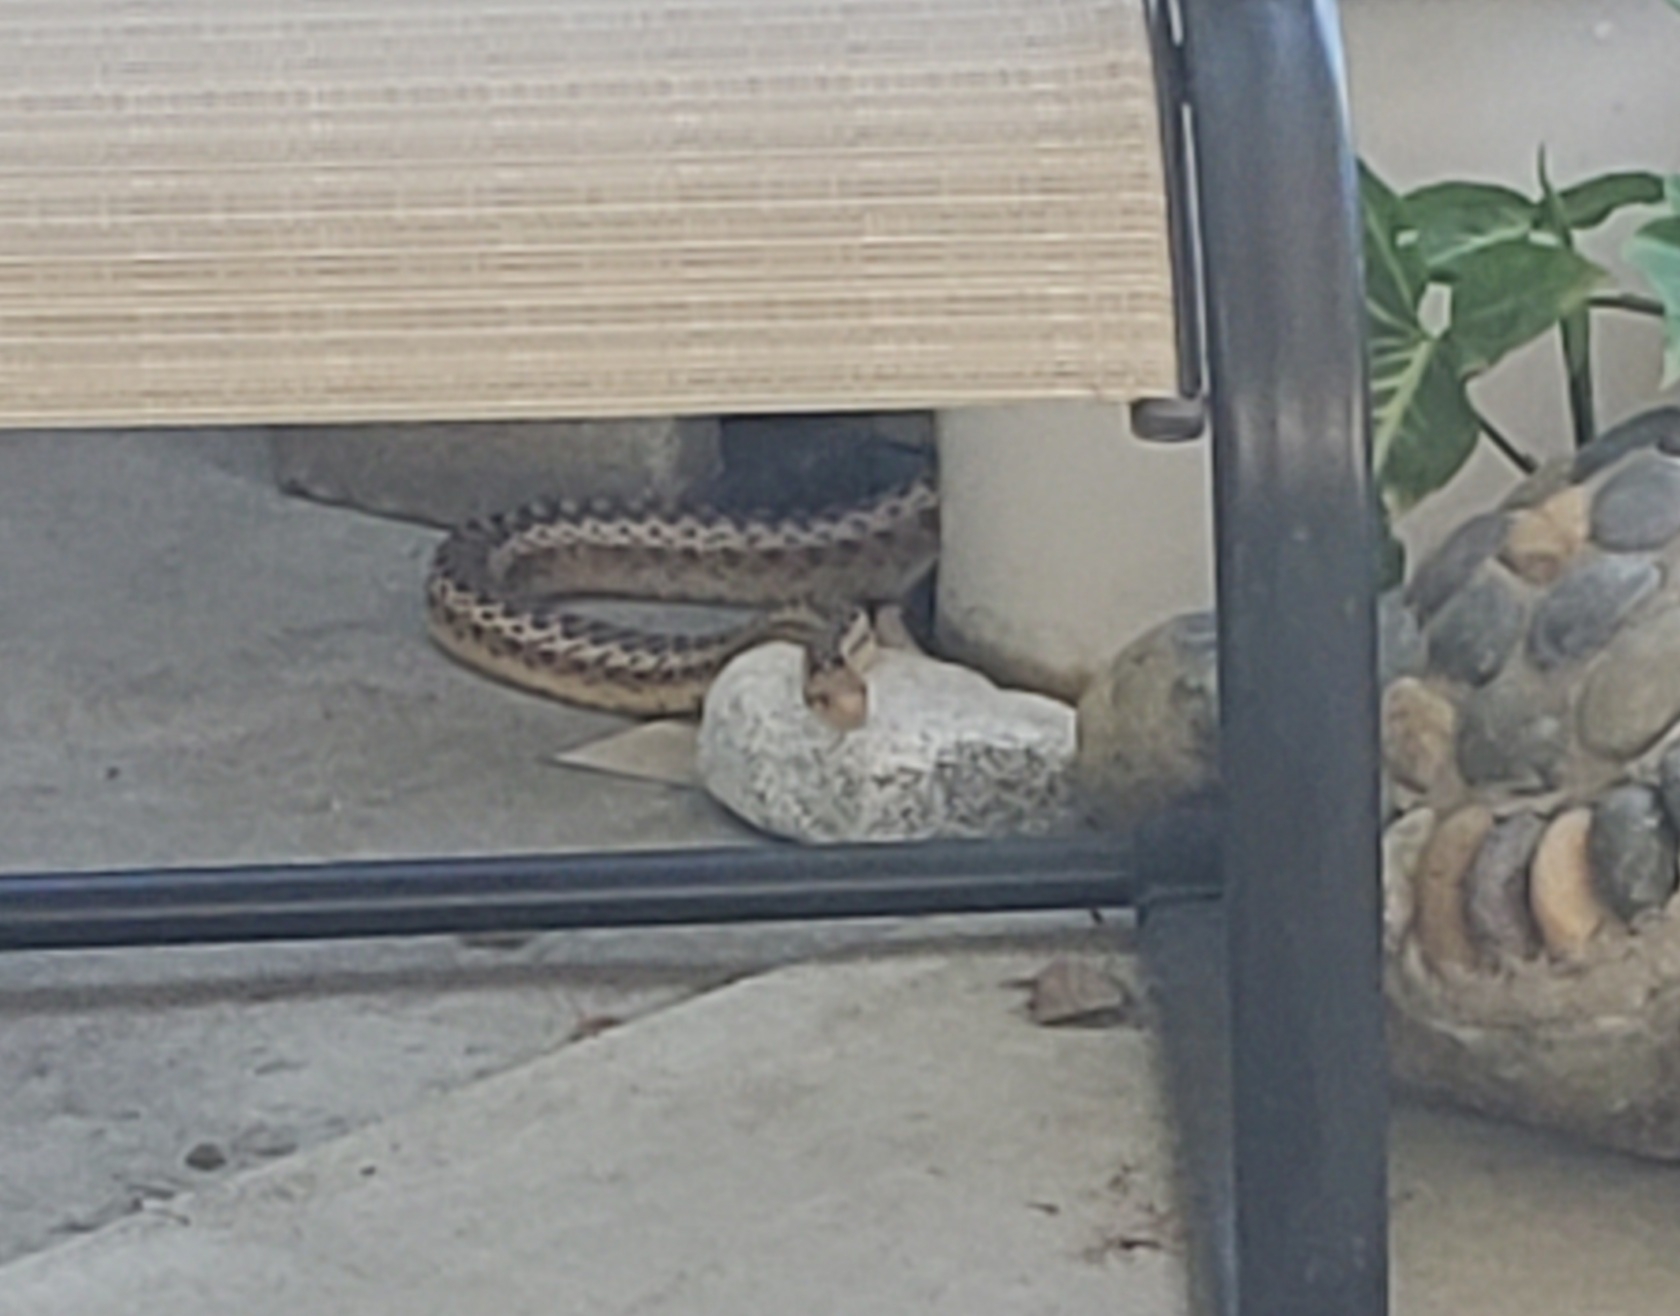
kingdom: Animalia
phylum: Chordata
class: Squamata
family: Colubridae
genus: Pituophis
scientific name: Pituophis catenifer
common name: Gopher snake
